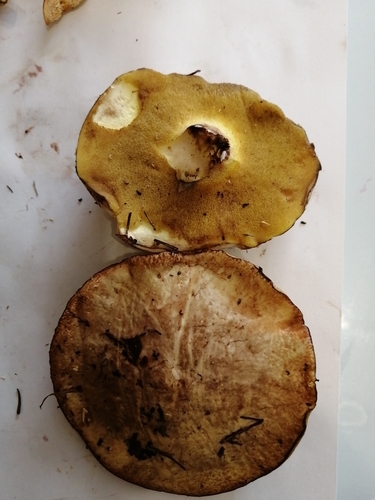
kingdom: Fungi
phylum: Basidiomycota
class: Agaricomycetes
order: Boletales
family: Suillaceae
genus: Suillus
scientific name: Suillus placidus
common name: Slippery white bolete
